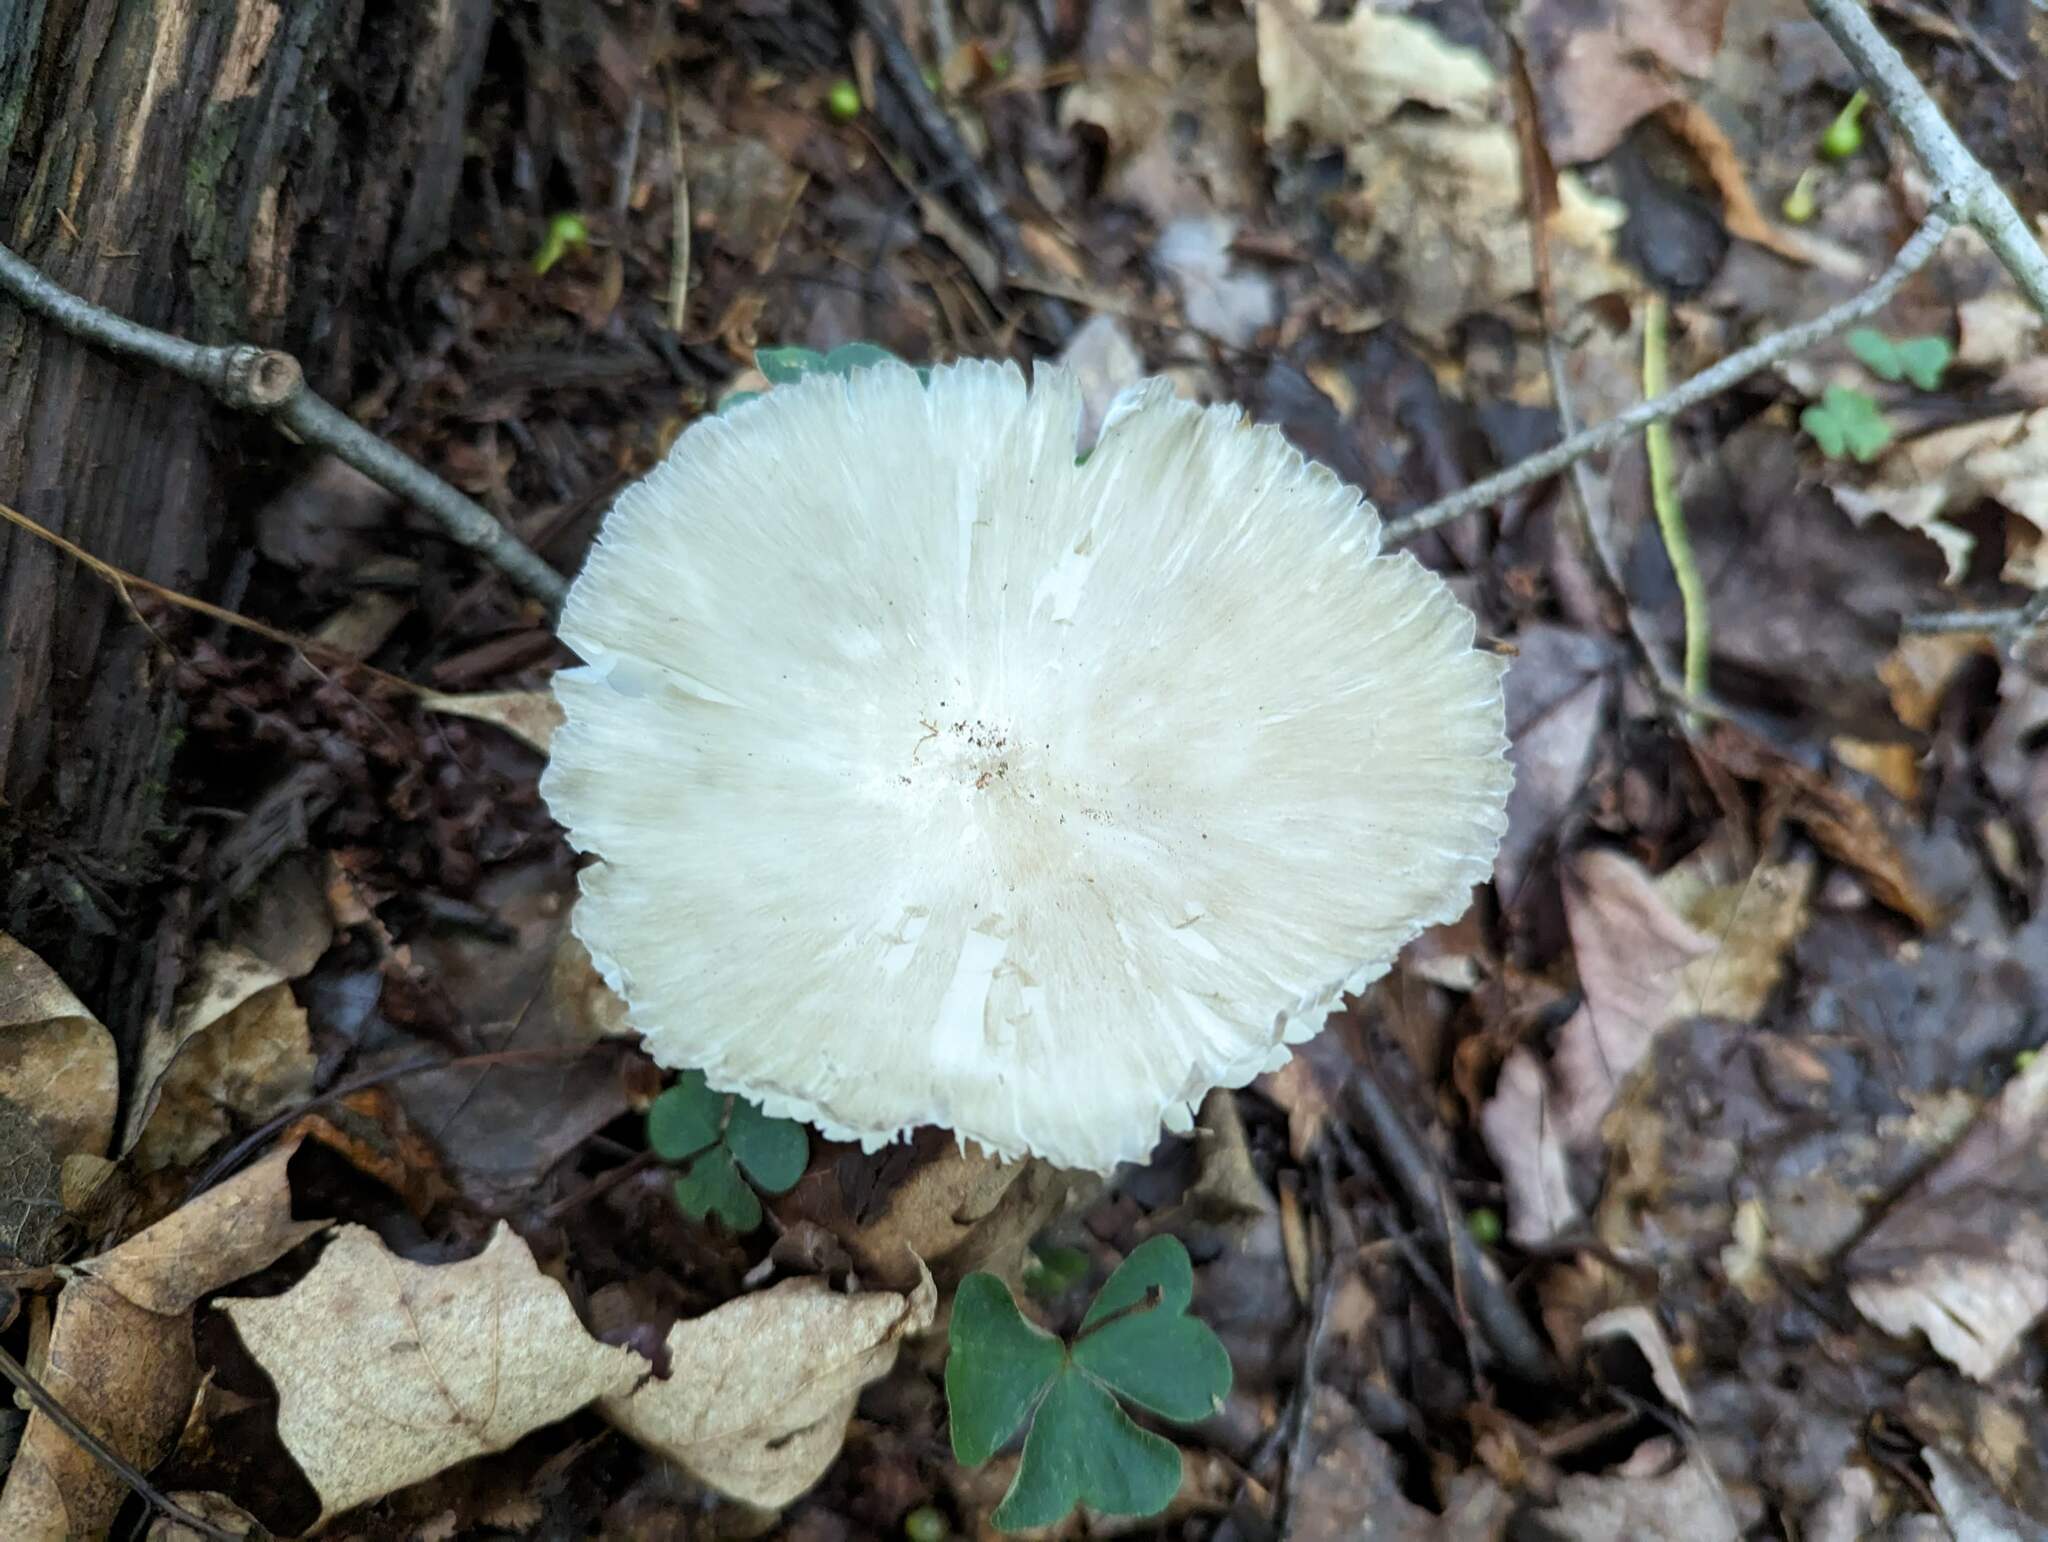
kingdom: Fungi
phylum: Basidiomycota
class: Agaricomycetes
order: Agaricales
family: Tricholomataceae
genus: Megacollybia
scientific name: Megacollybia rodmanii
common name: Eastern american platterful mushroom
